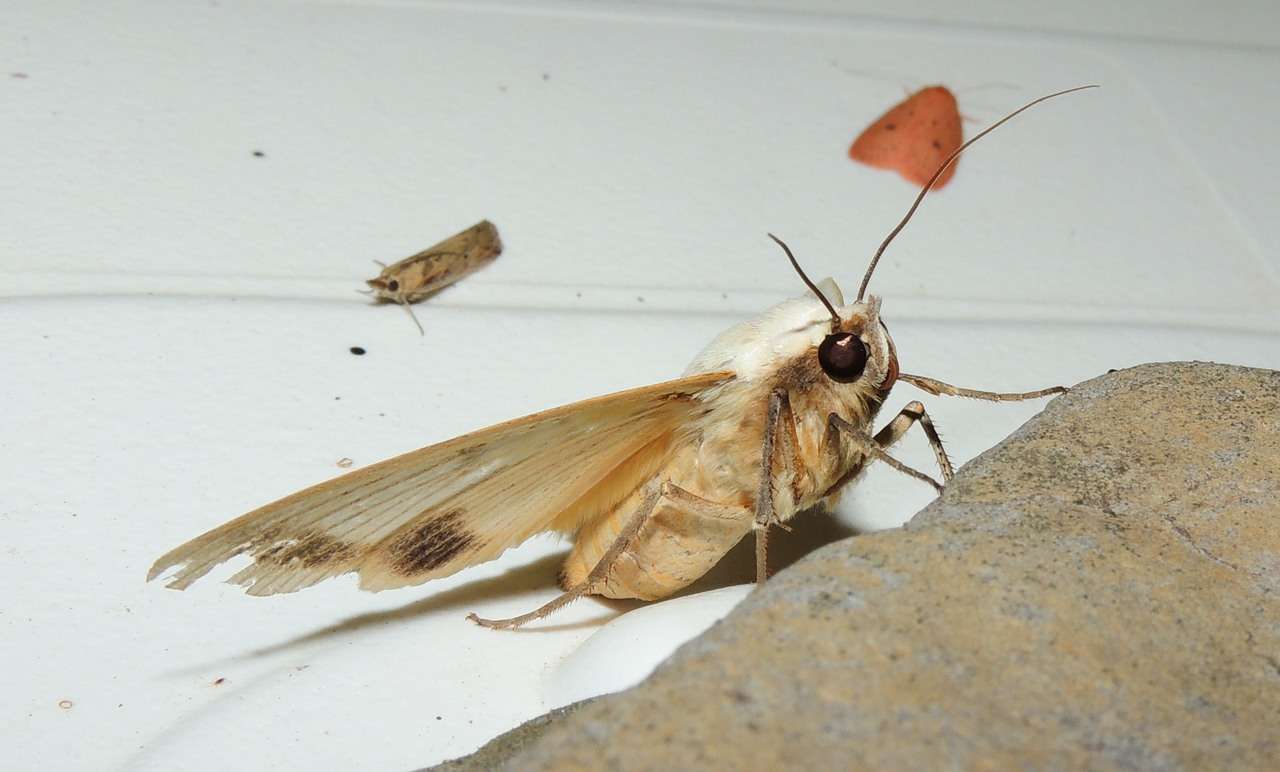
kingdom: Animalia
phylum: Arthropoda
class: Insecta
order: Lepidoptera
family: Erebidae
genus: Ophiusa
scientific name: Ophiusa parcemacula
